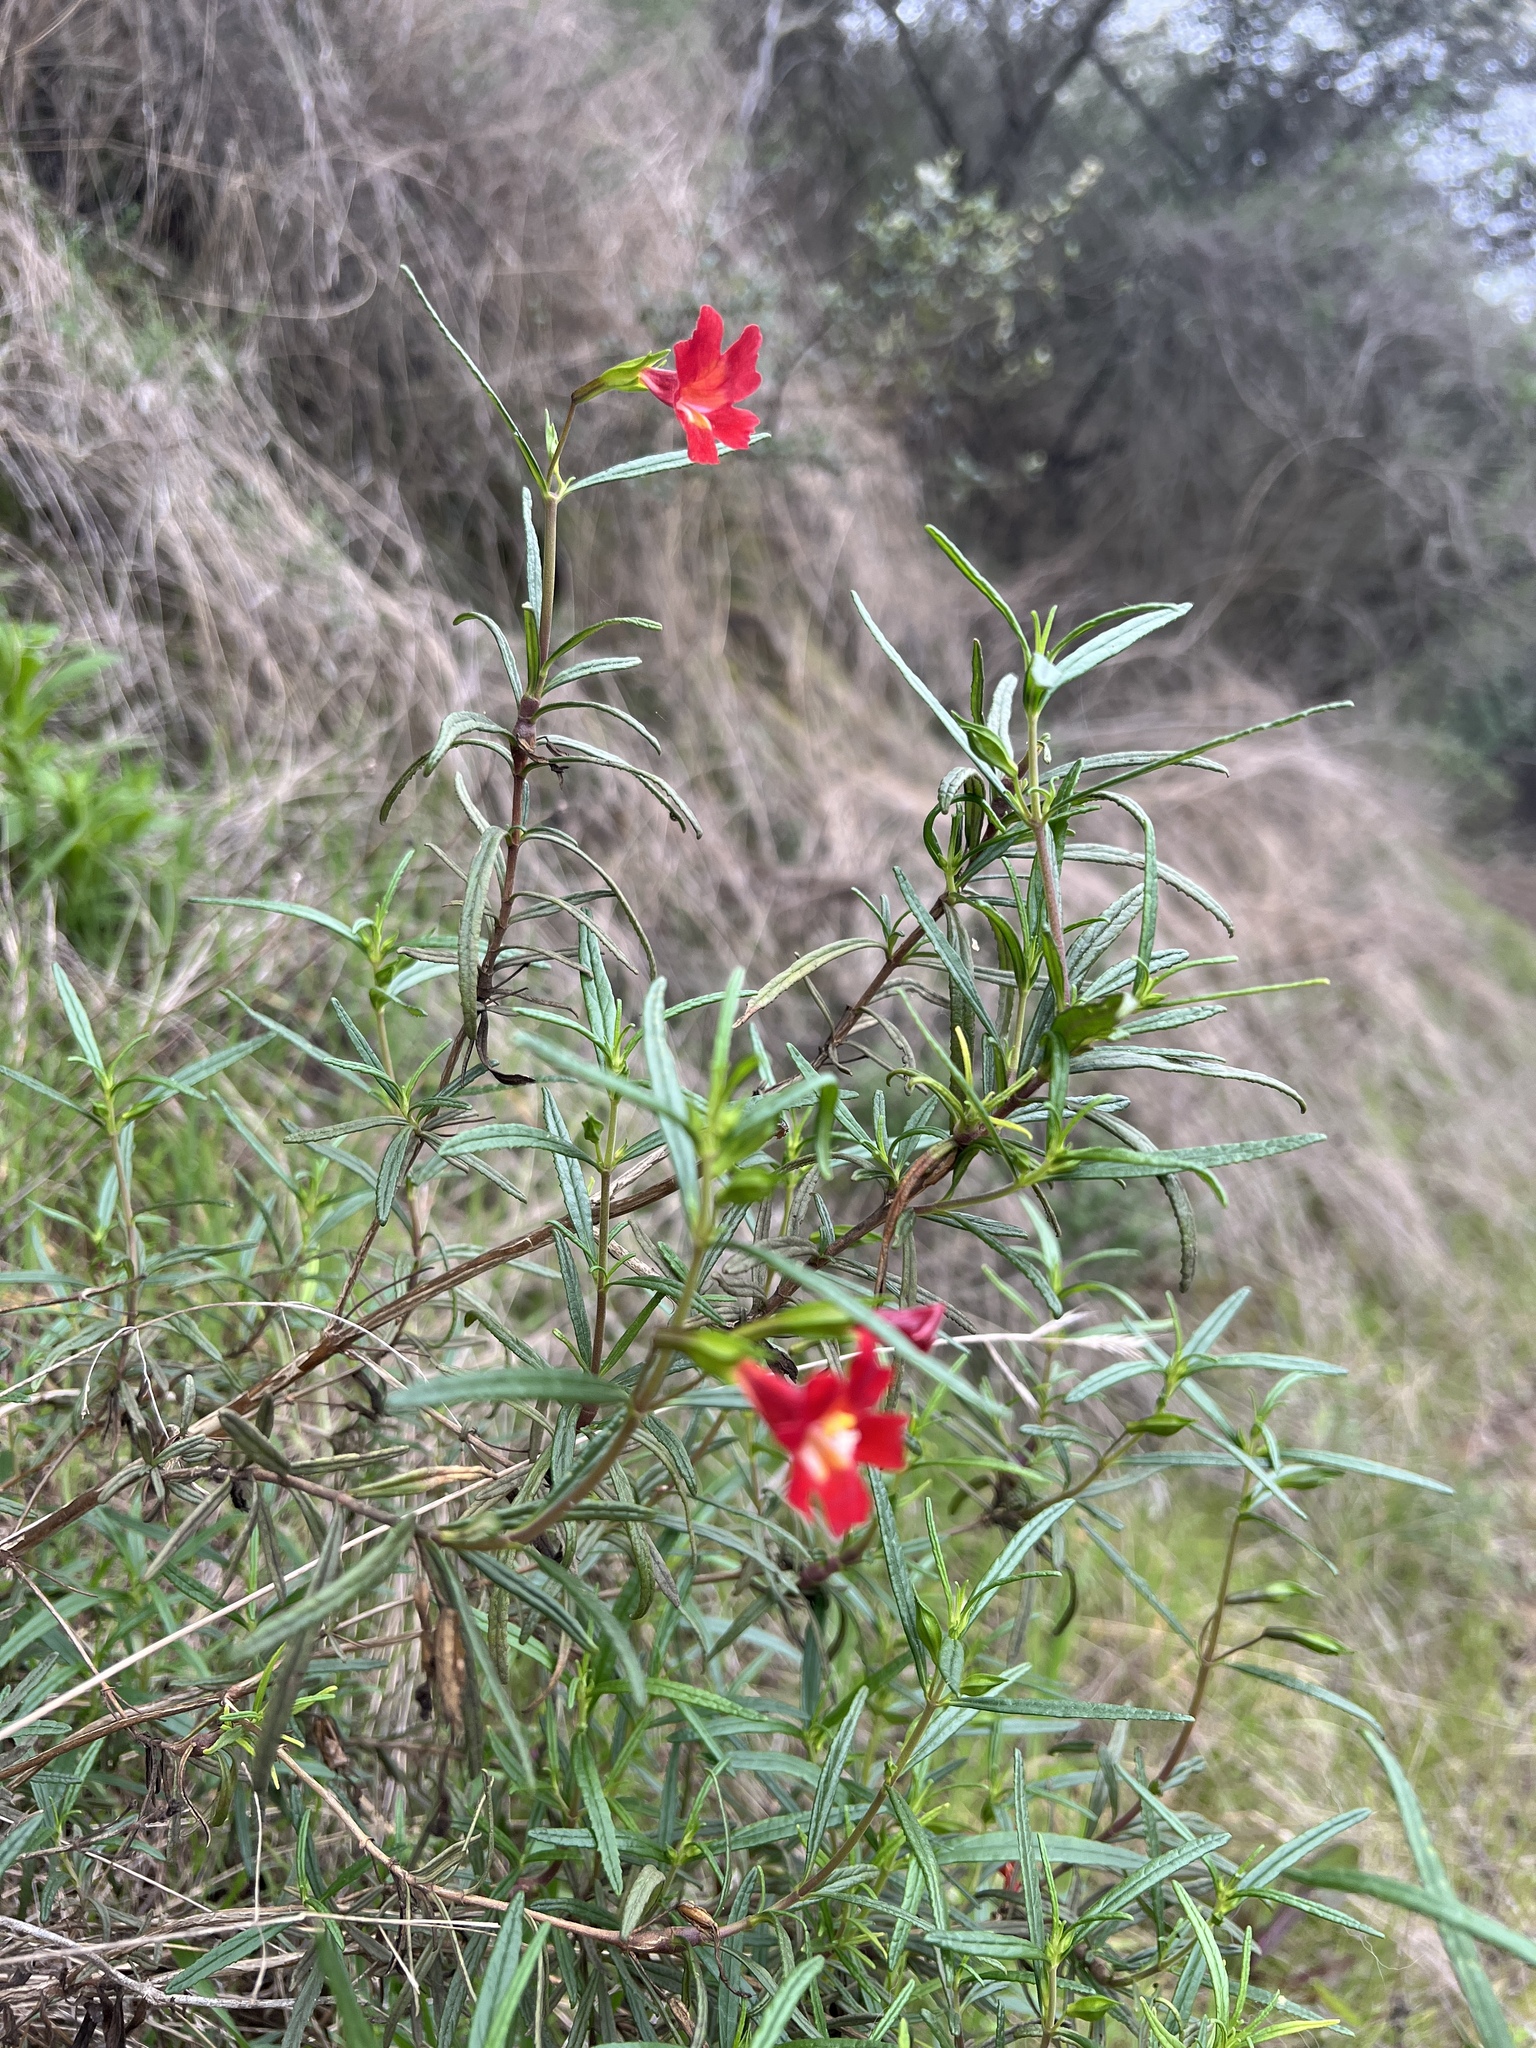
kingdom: Plantae
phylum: Tracheophyta
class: Magnoliopsida
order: Lamiales
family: Phrymaceae
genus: Diplacus
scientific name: Diplacus puniceus
